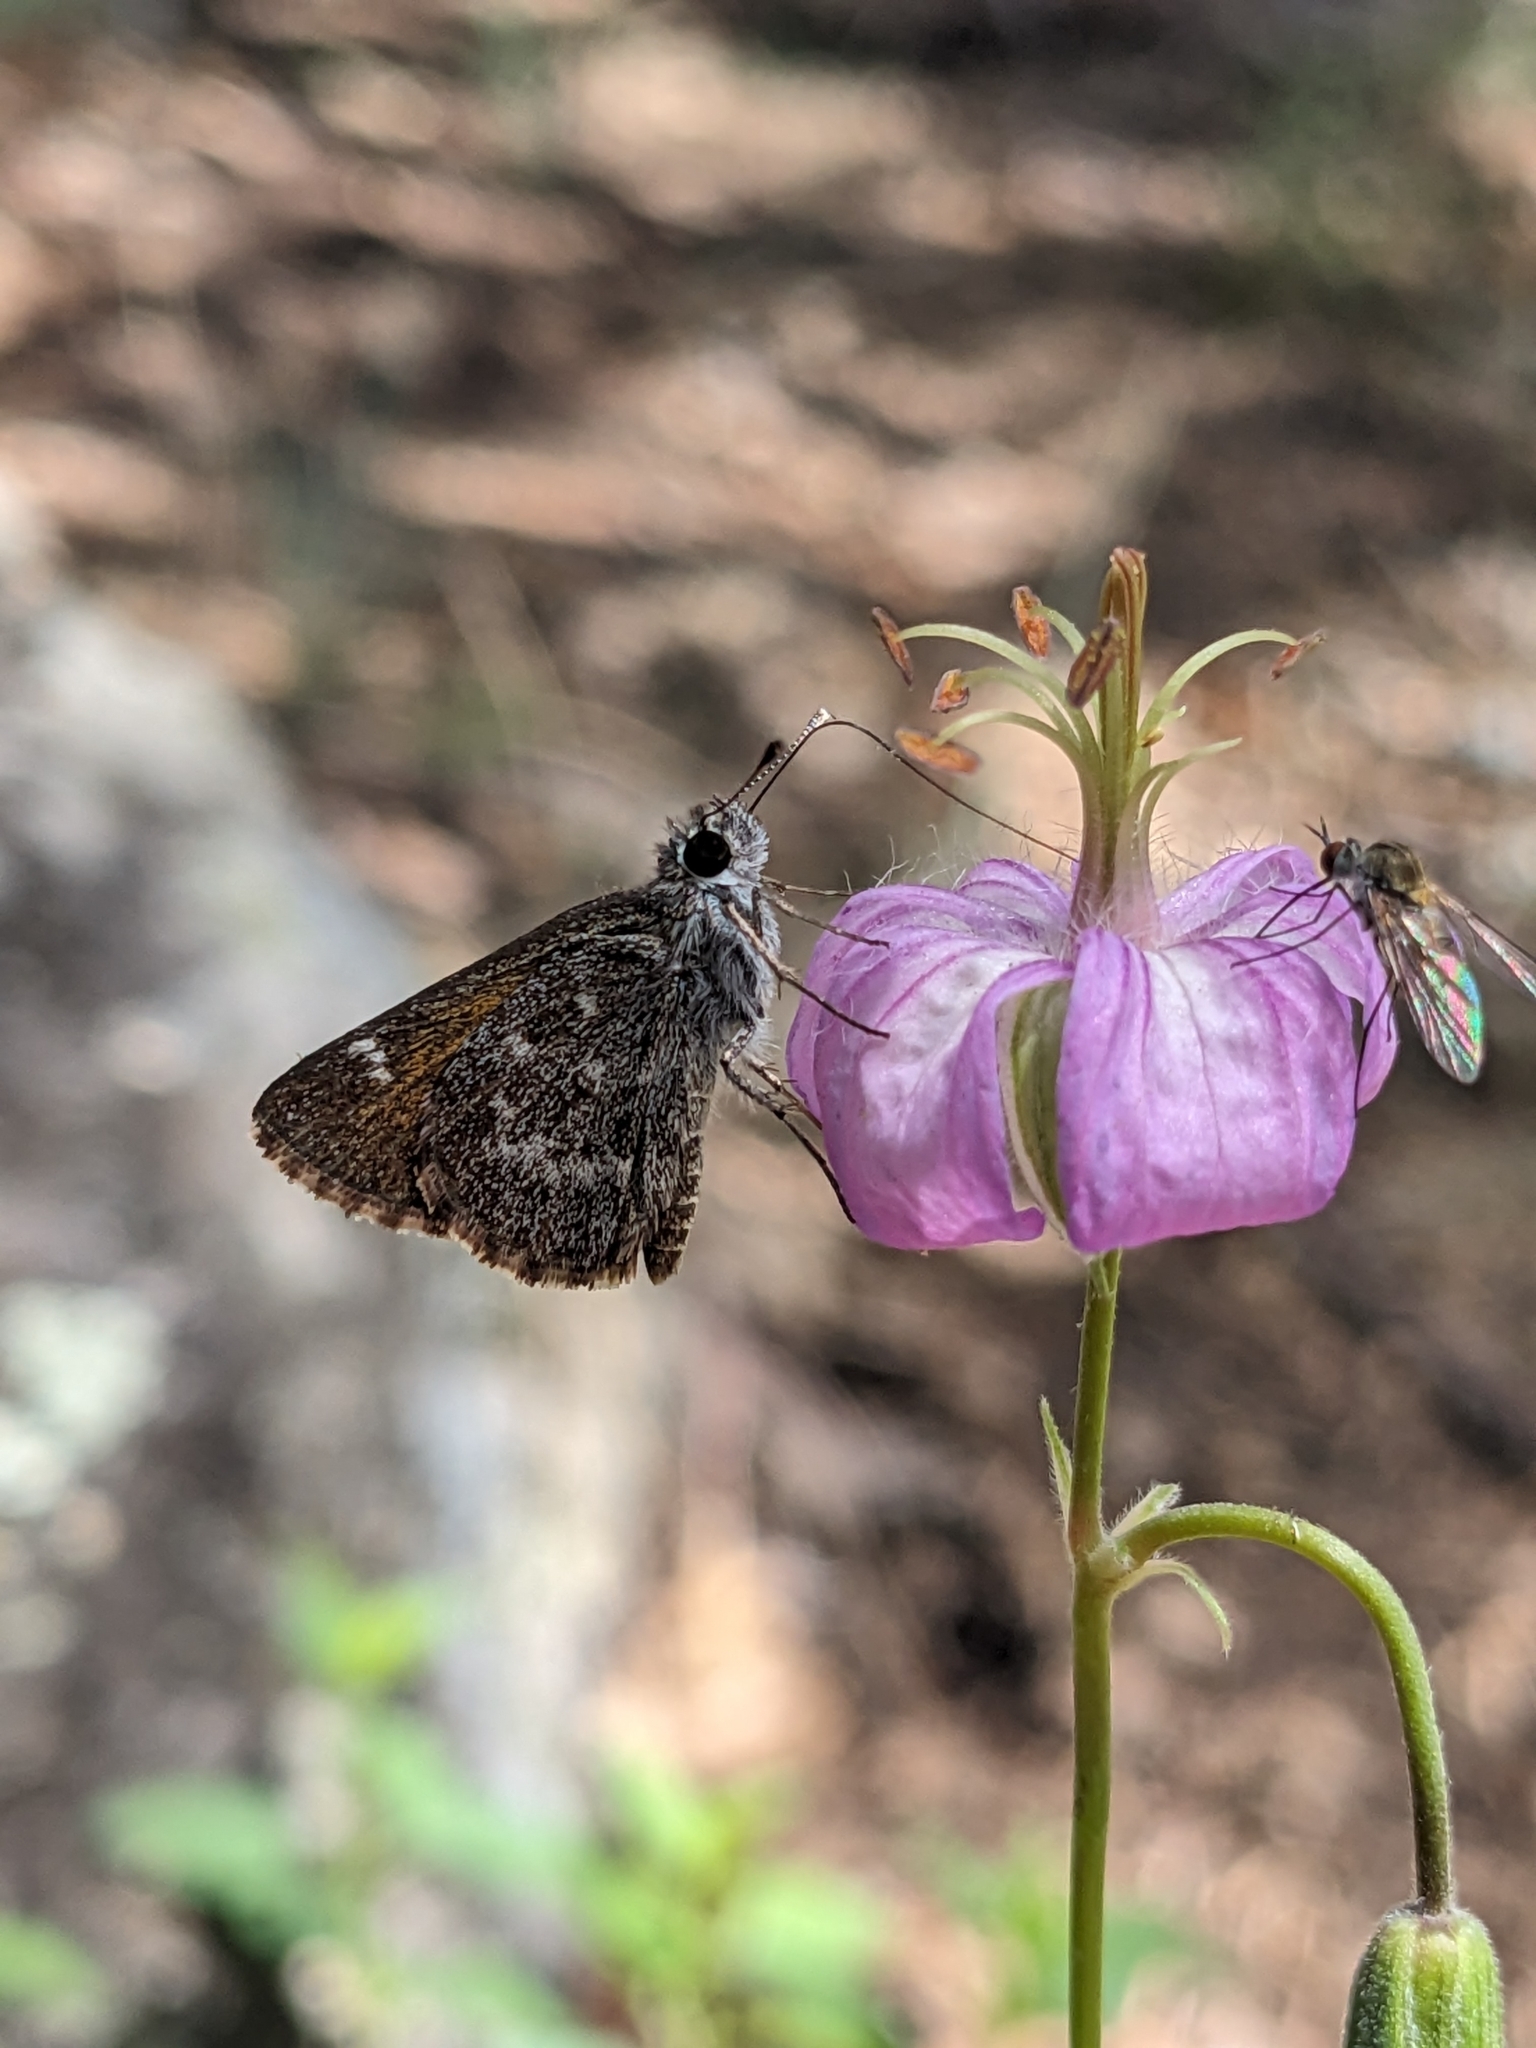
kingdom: Animalia
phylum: Arthropoda
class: Insecta
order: Lepidoptera
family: Hesperiidae
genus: Mastor
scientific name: Mastor aenus
